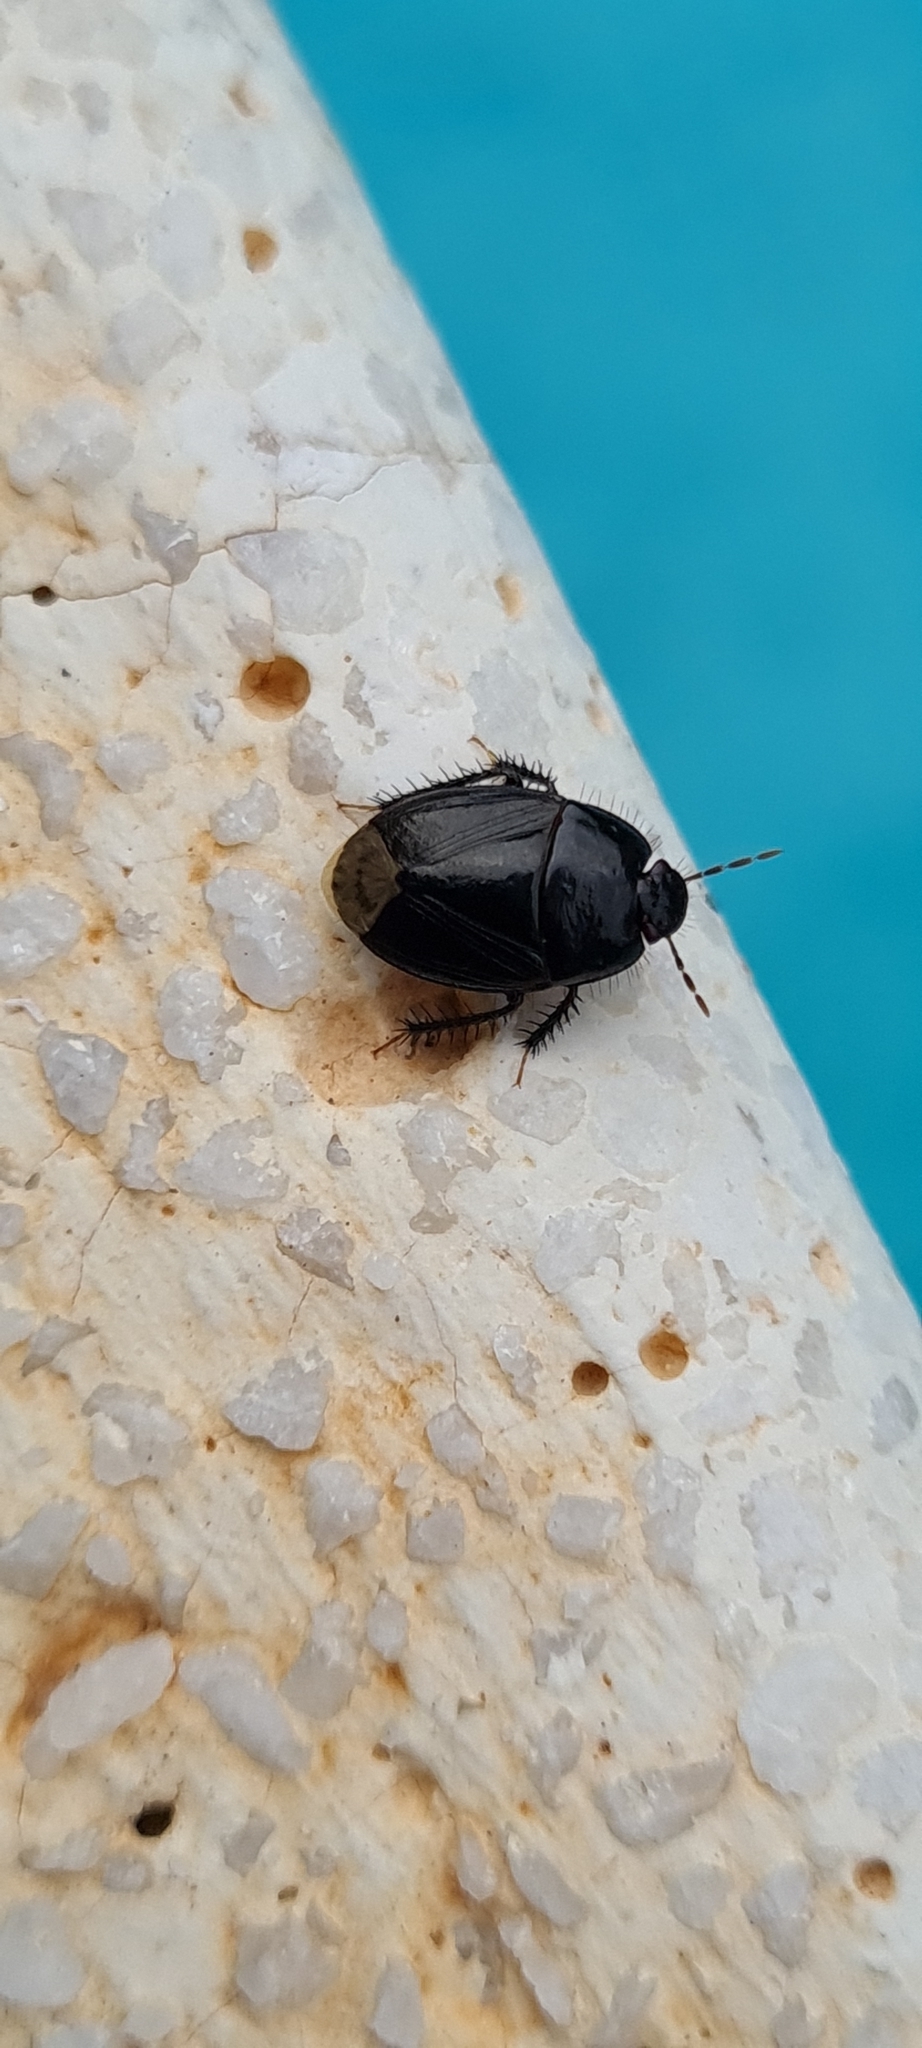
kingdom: Animalia
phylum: Arthropoda
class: Insecta
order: Hemiptera
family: Cydnidae
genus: Macroscytus
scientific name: Macroscytus brunneus
